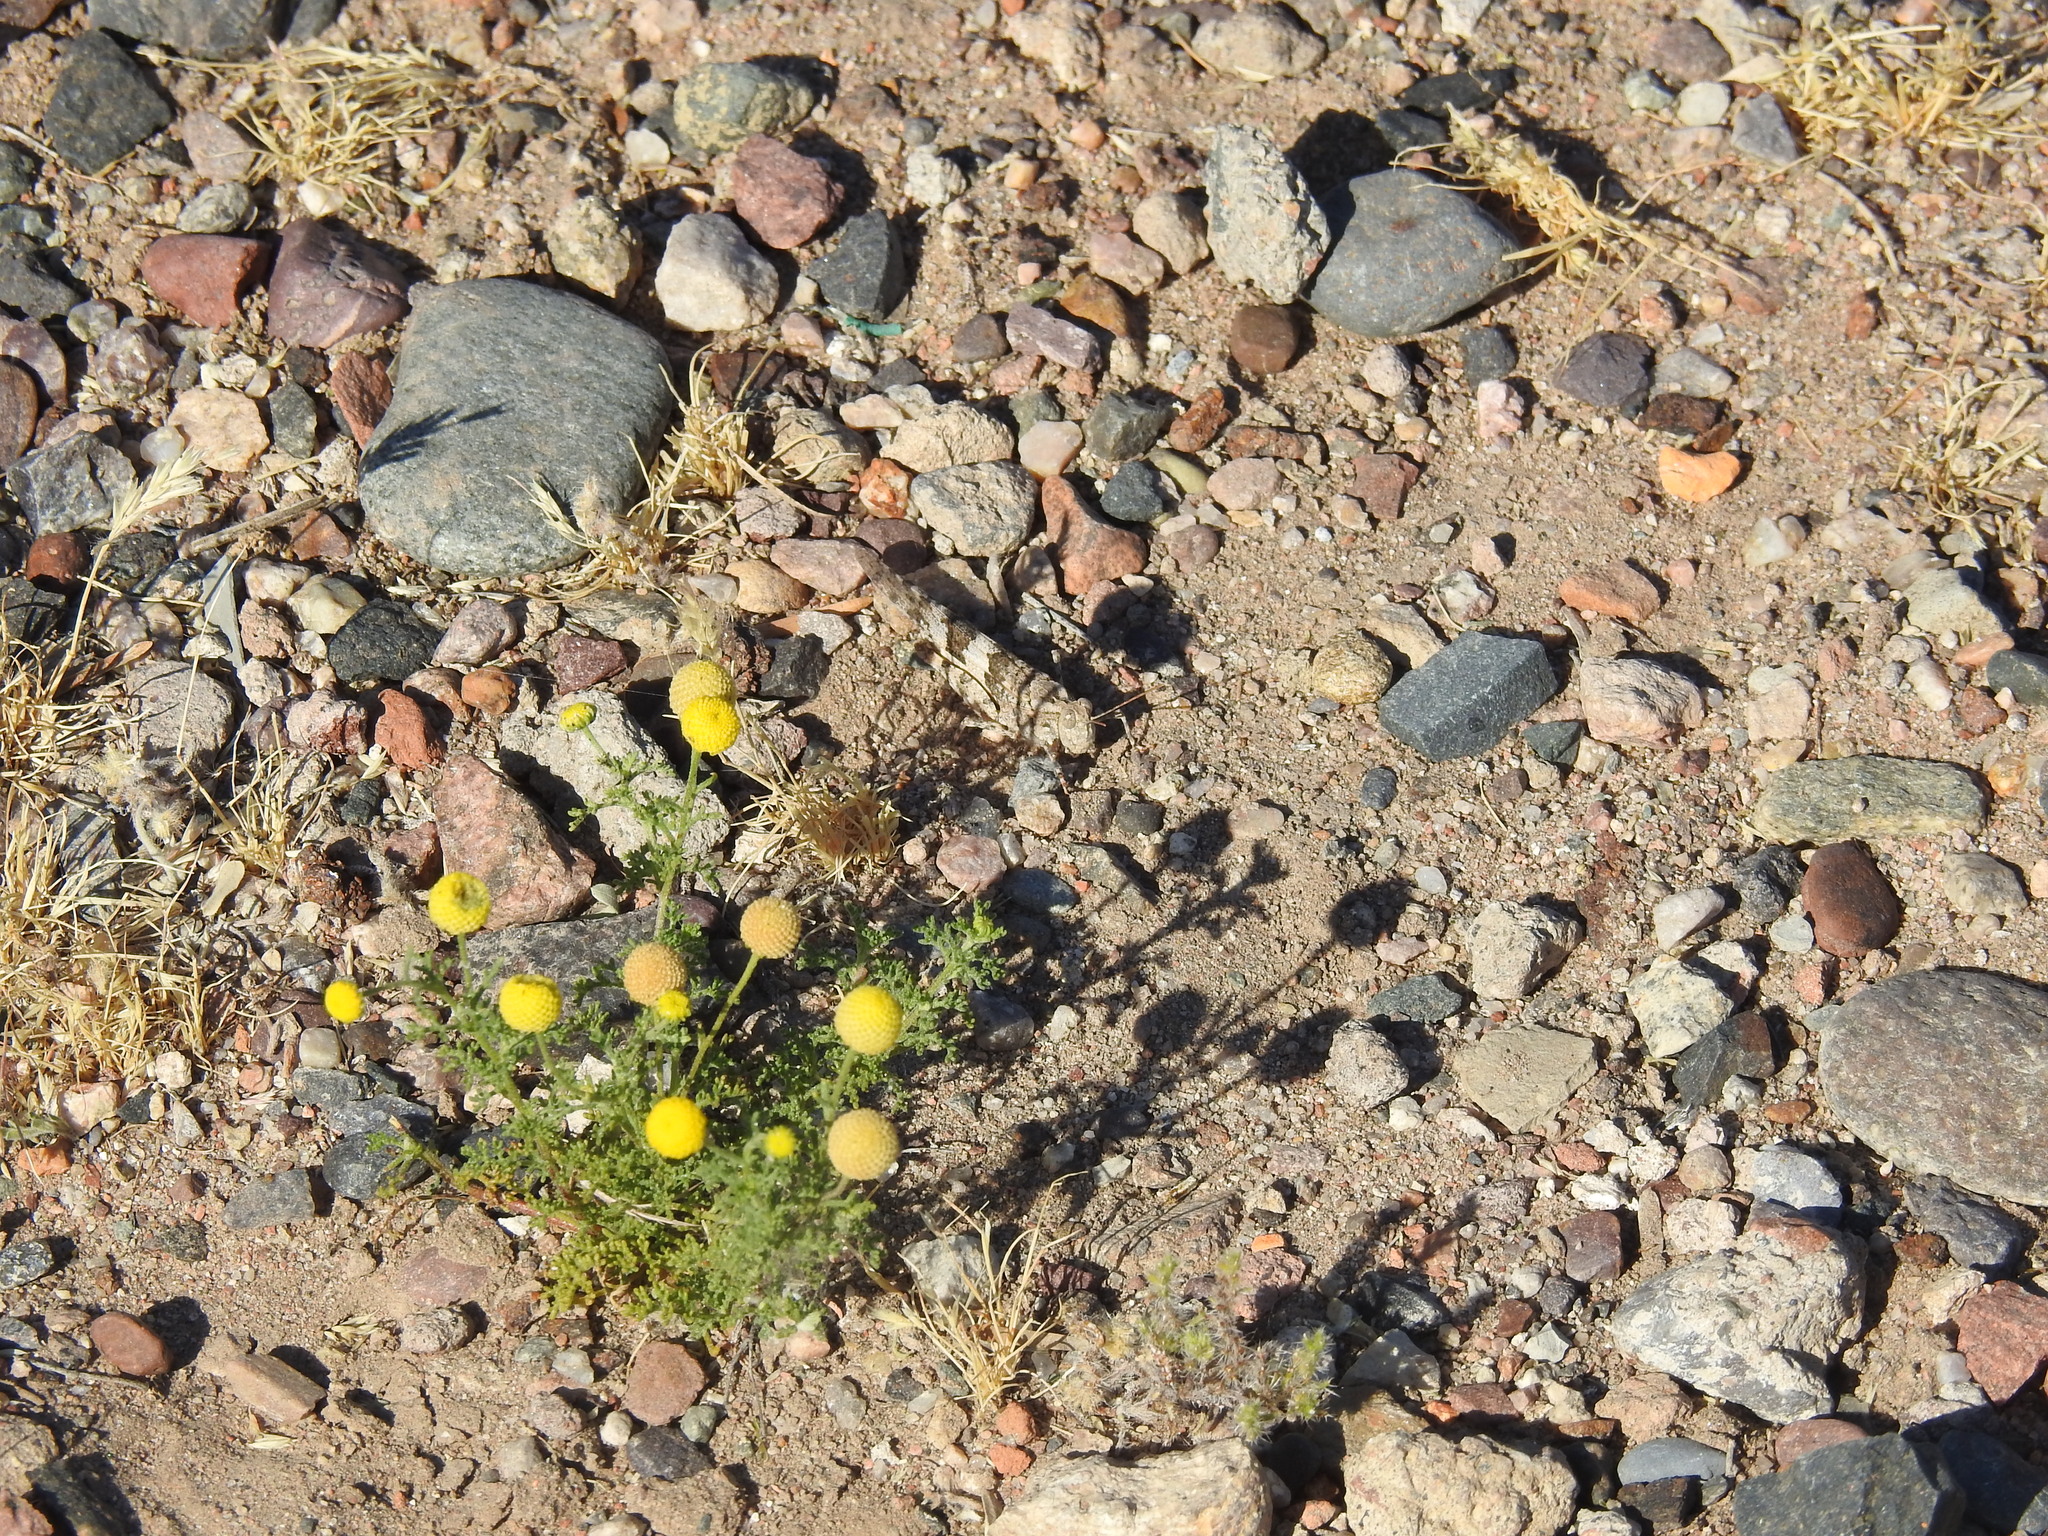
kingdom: Animalia
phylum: Arthropoda
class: Insecta
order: Orthoptera
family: Acrididae
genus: Trimerotropis
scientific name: Trimerotropis pallidipennis
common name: Pallid-winged grasshopper
